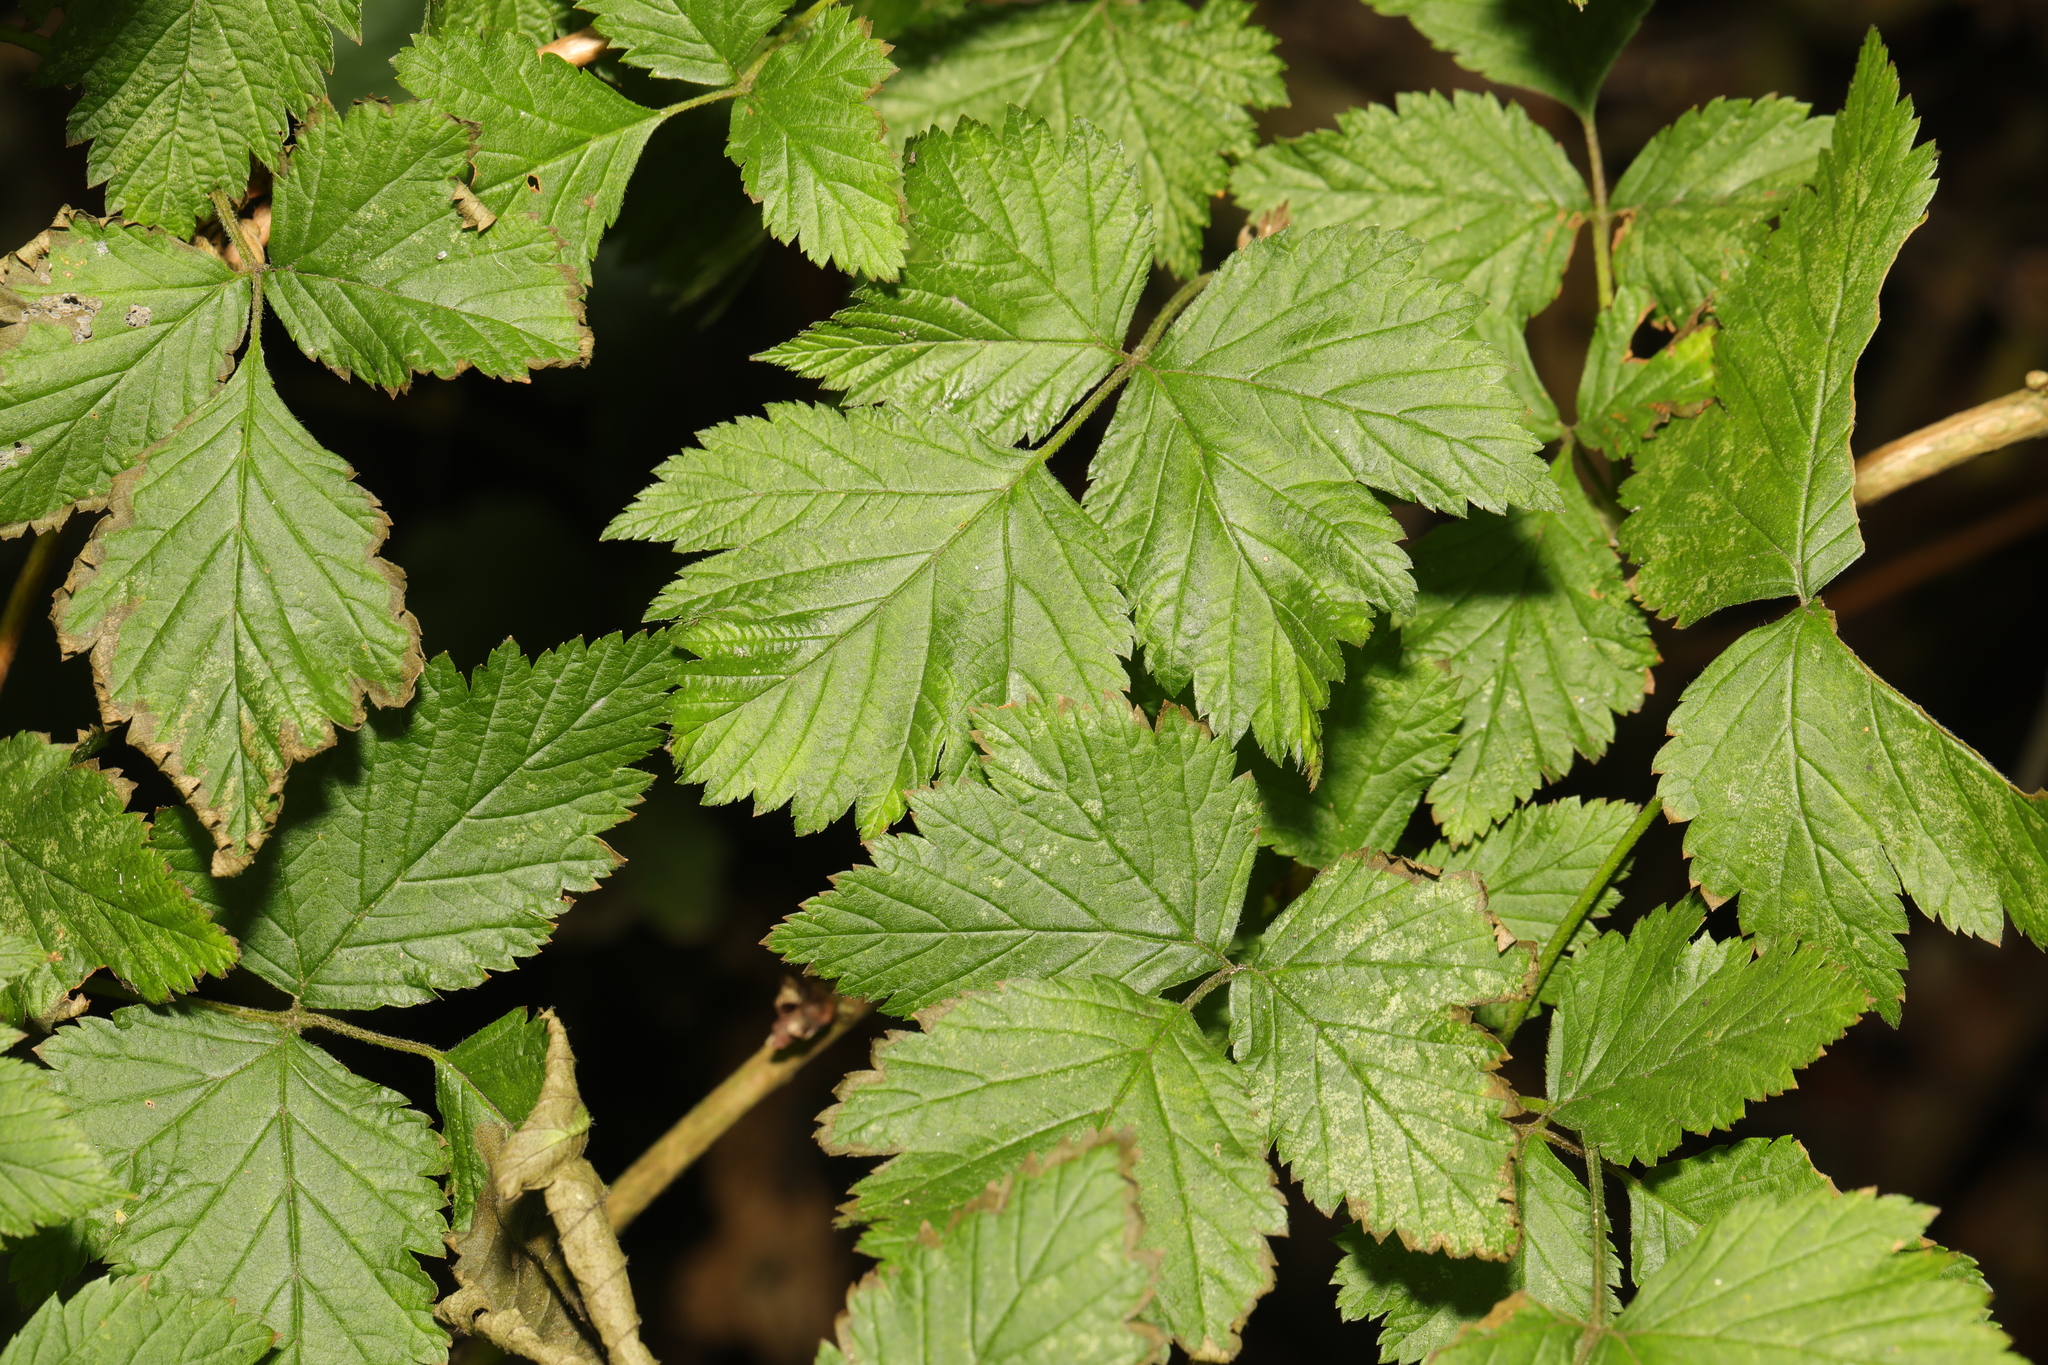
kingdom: Plantae
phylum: Tracheophyta
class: Magnoliopsida
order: Rosales
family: Rosaceae
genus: Rubus
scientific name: Rubus spectabilis
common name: Salmonberry
